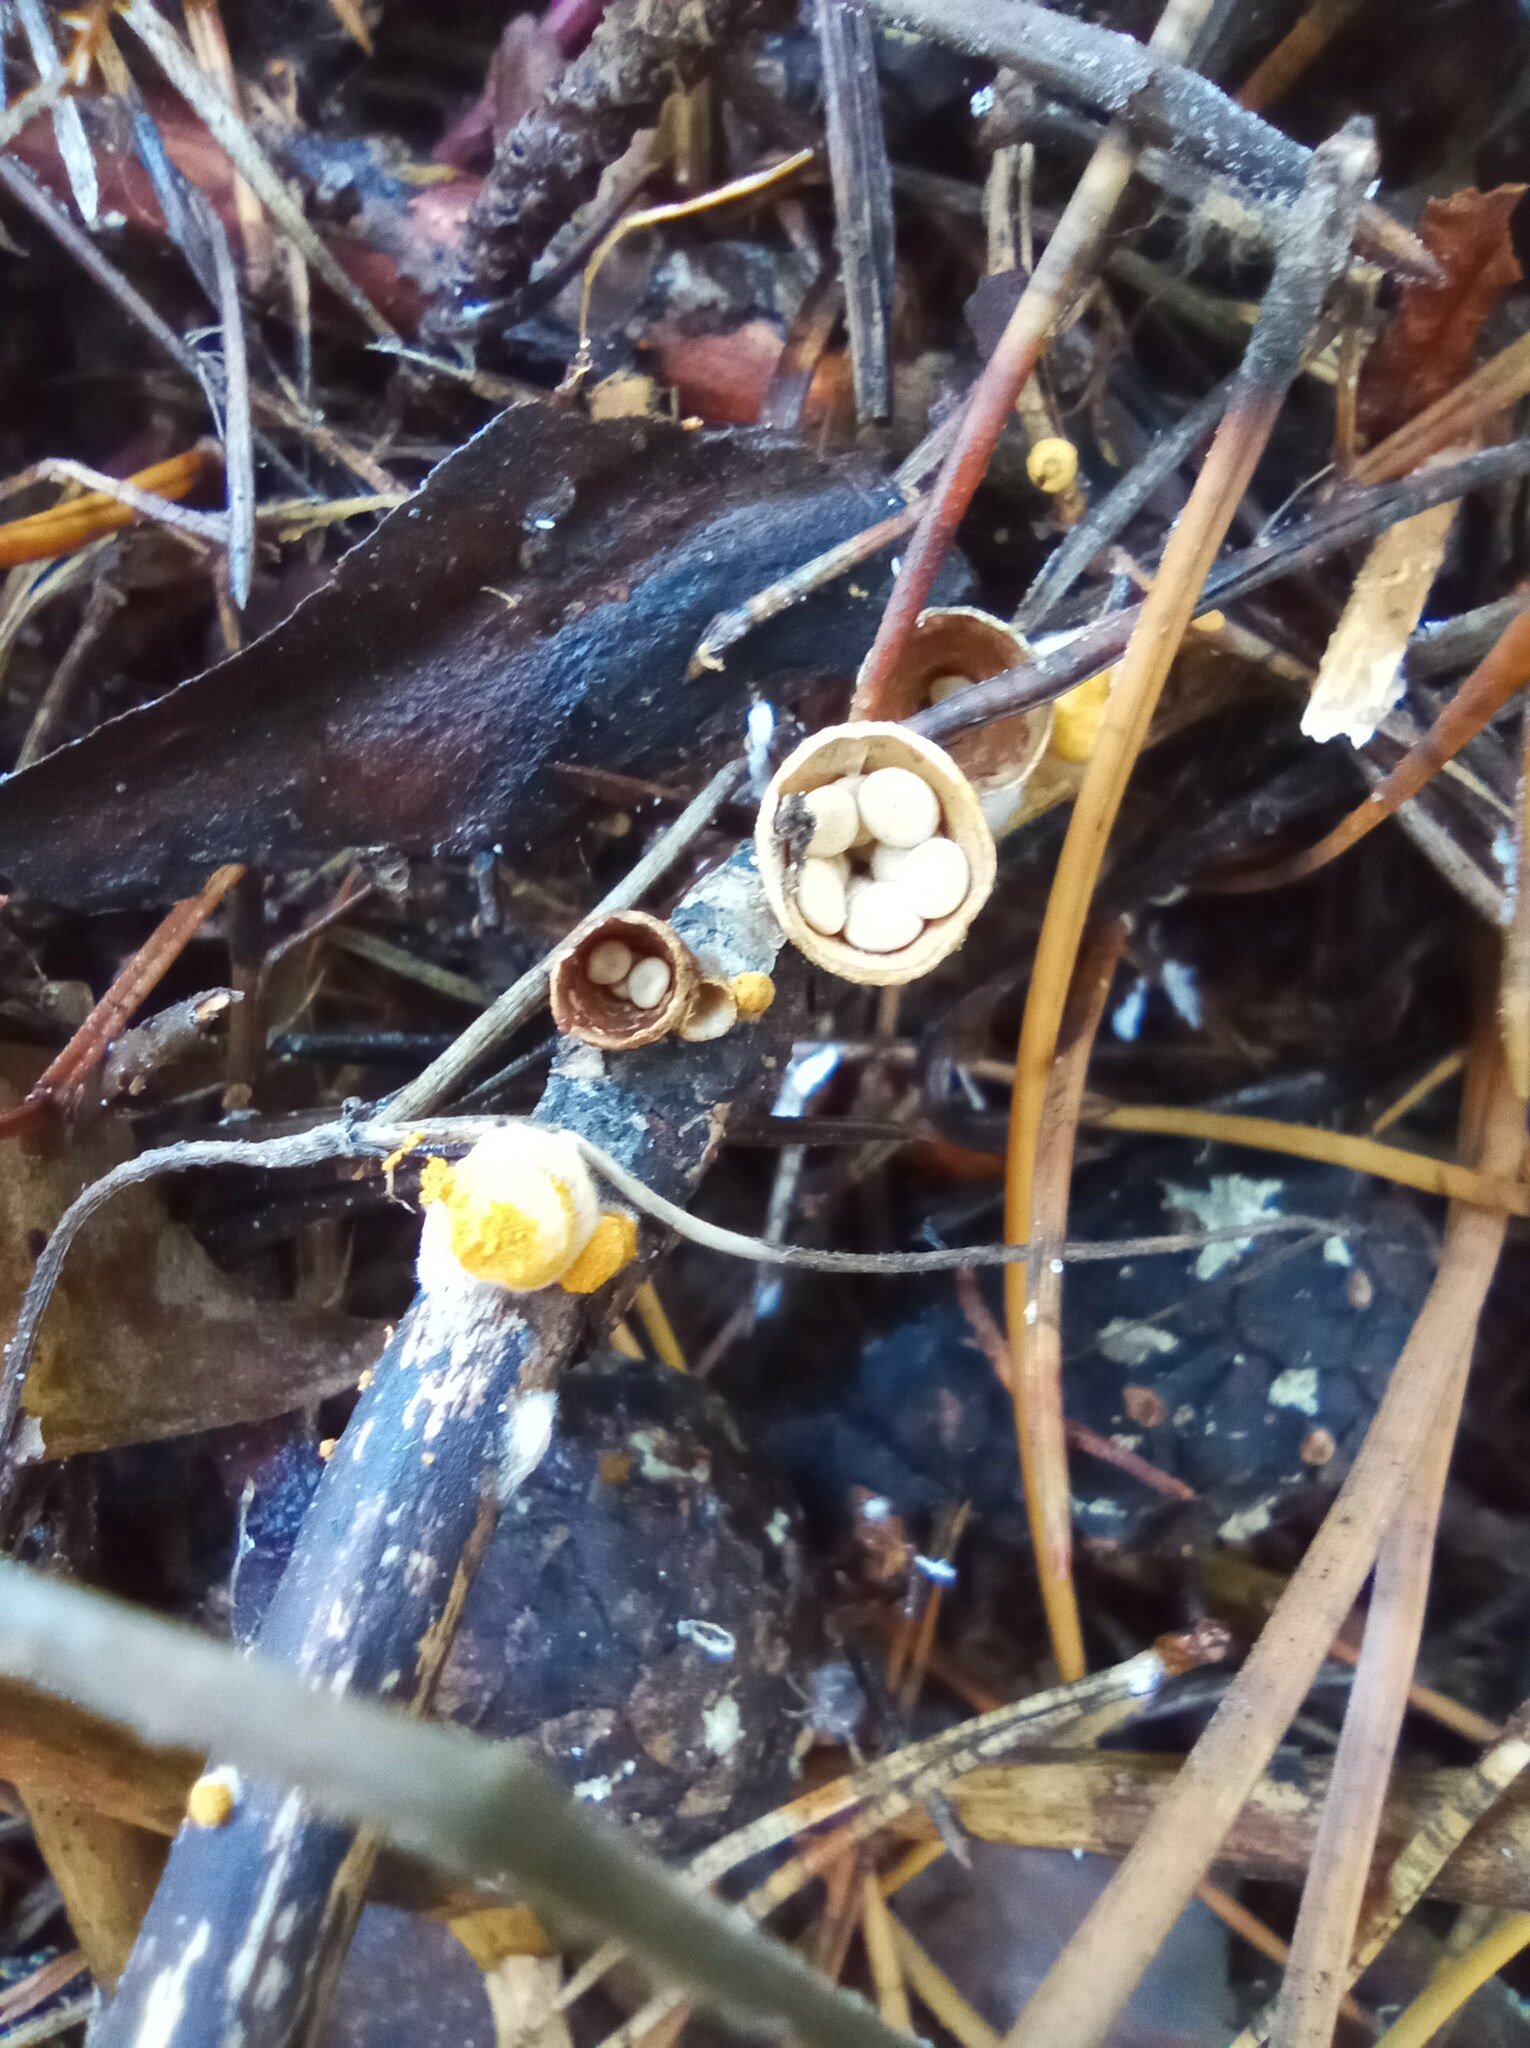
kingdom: Fungi
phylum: Basidiomycota
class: Agaricomycetes
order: Agaricales
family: Nidulariaceae
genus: Crucibulum
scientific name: Crucibulum laeve
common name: Common bird's nest
